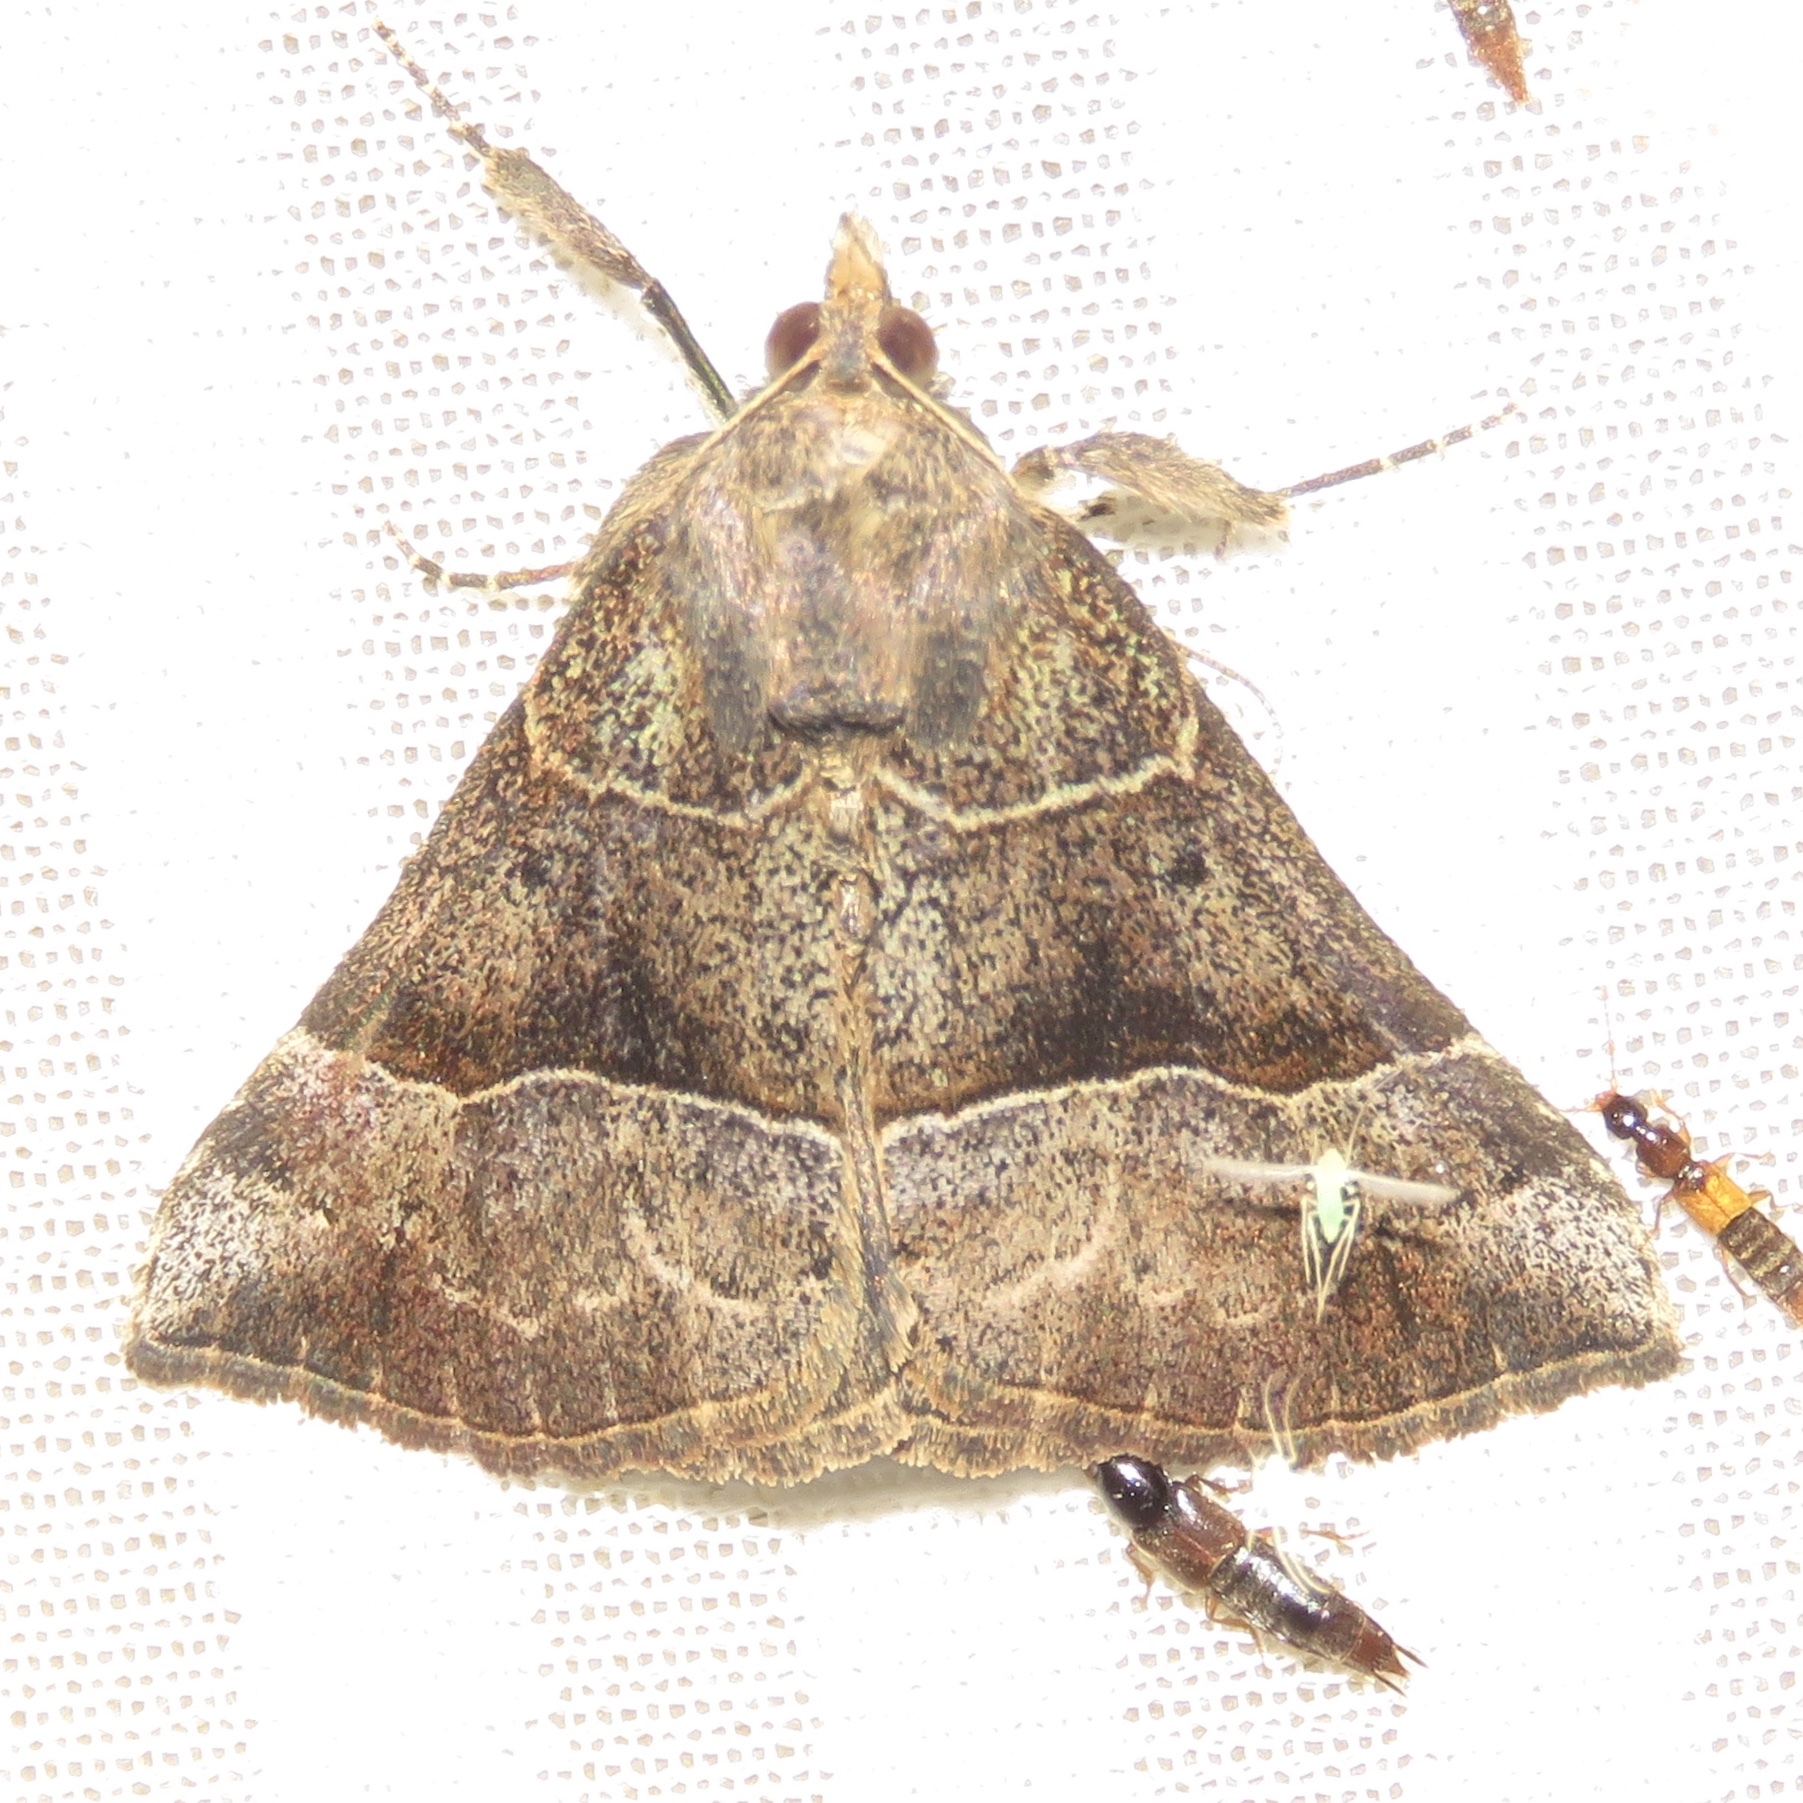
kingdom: Animalia
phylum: Arthropoda
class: Insecta
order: Lepidoptera
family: Erebidae
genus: Hypena
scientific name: Hypena deceptalis
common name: Deceptive snout
